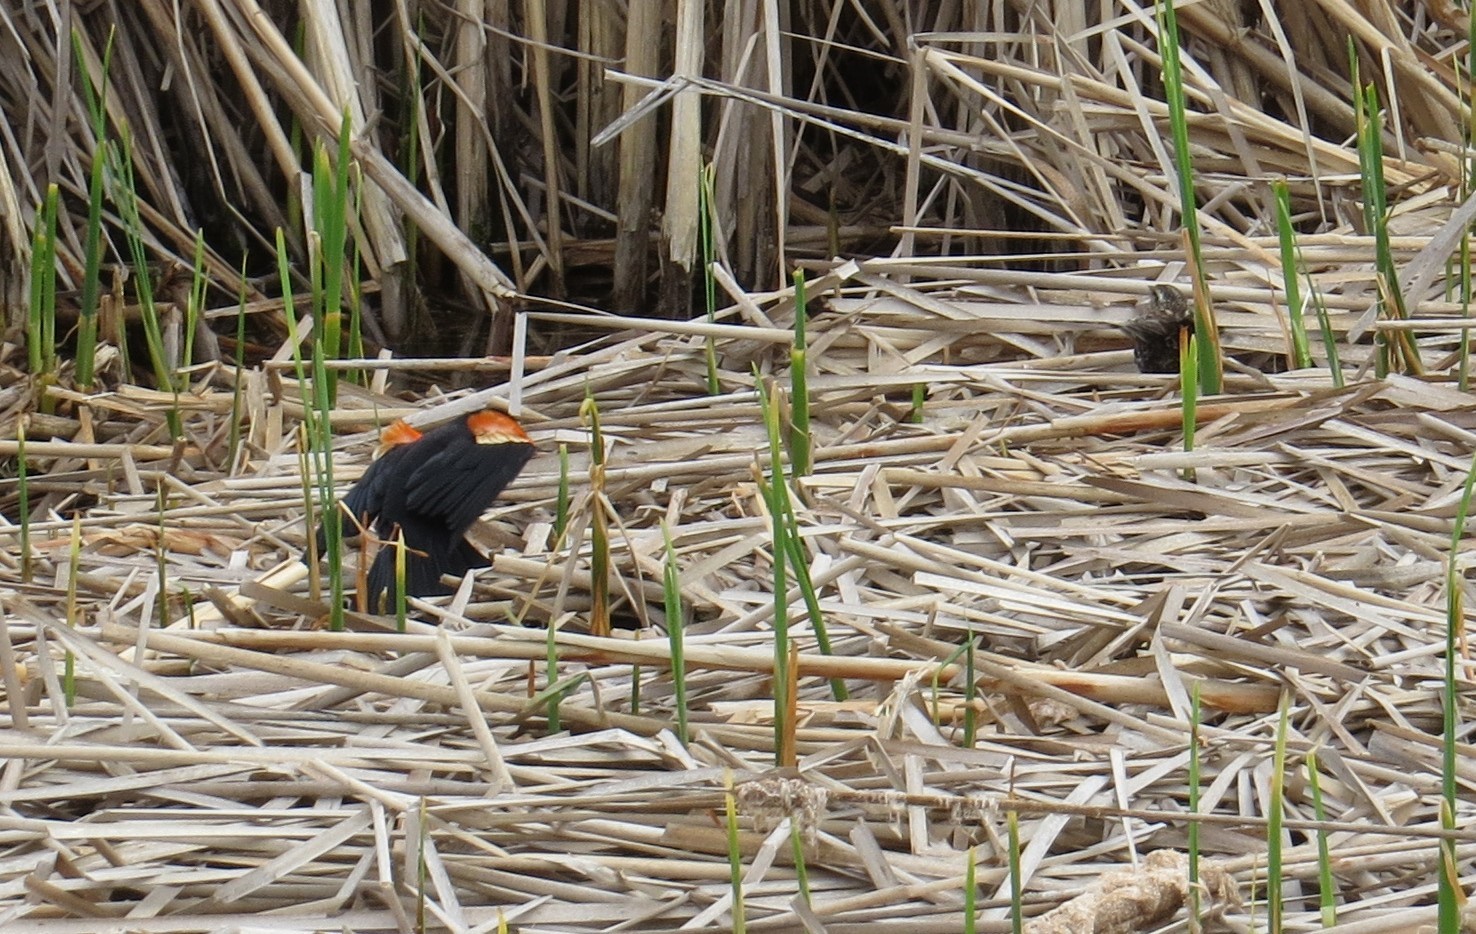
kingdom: Animalia
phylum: Chordata
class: Aves
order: Passeriformes
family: Icteridae
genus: Agelaius
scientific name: Agelaius phoeniceus
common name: Red-winged blackbird
